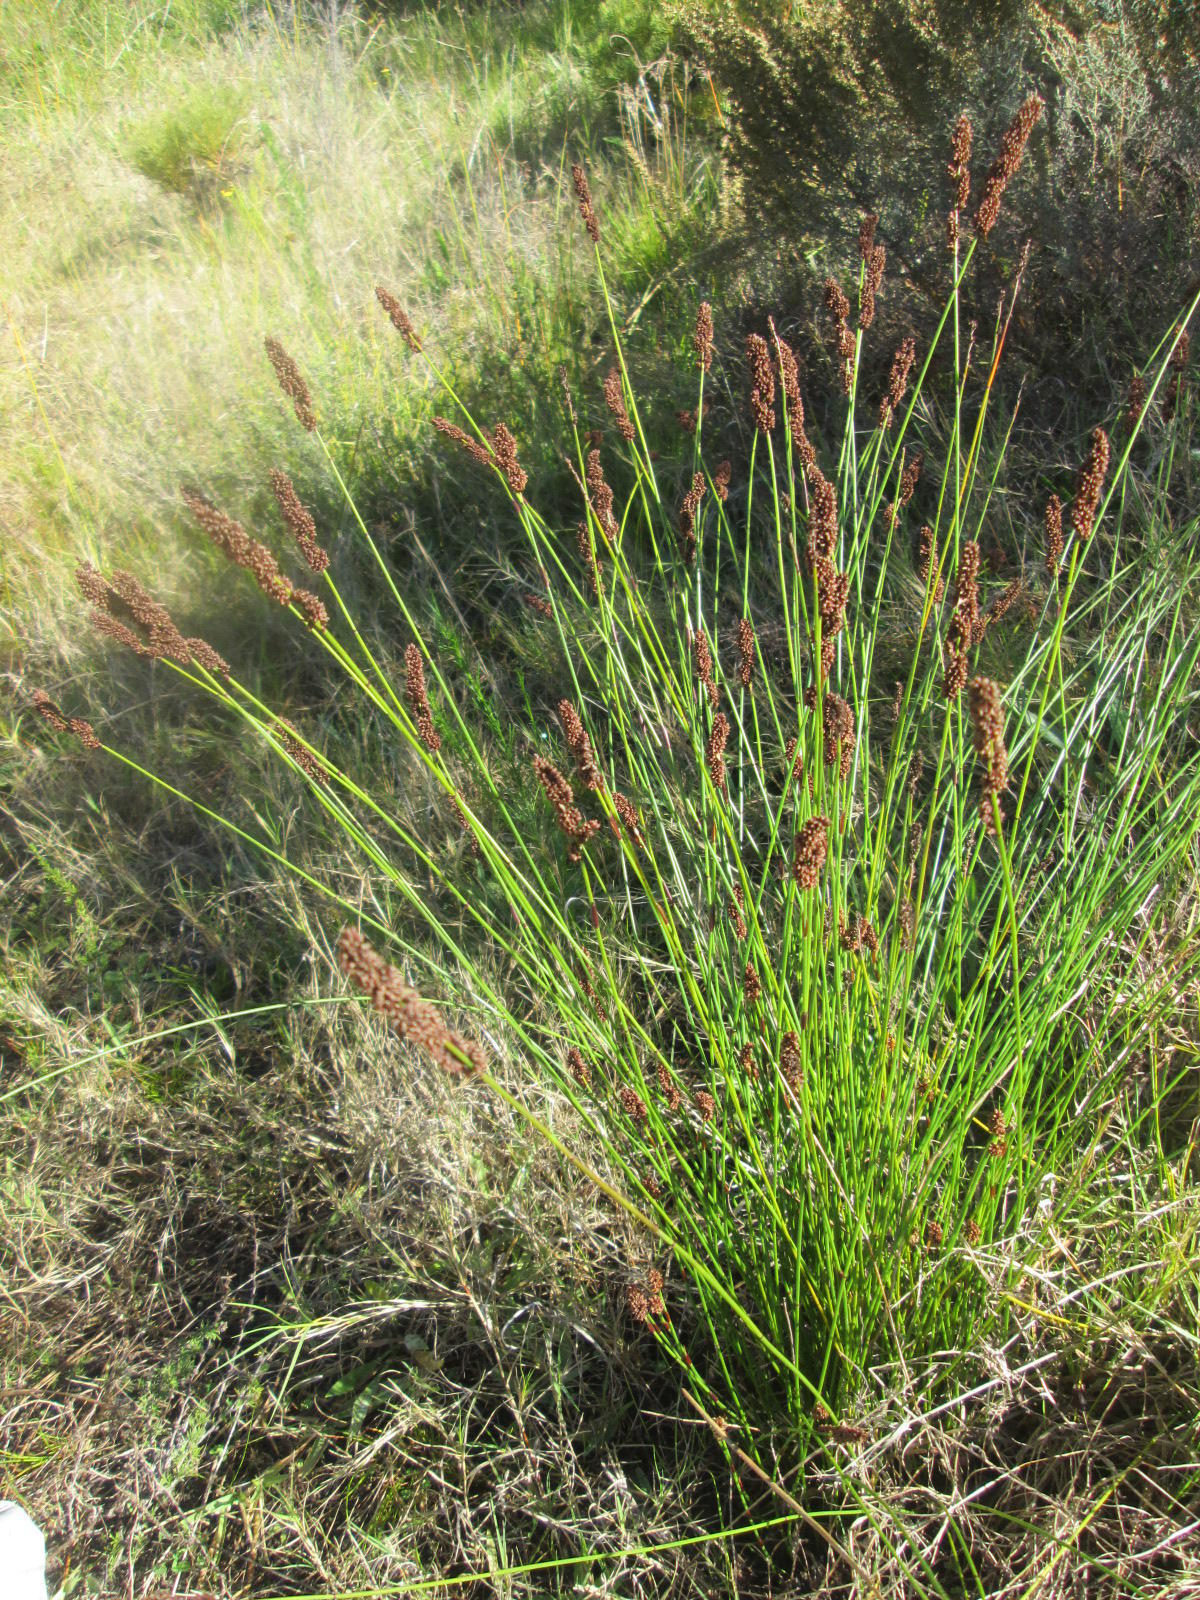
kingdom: Plantae
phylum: Tracheophyta
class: Liliopsida
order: Poales
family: Restionaceae
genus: Elegia
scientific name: Elegia nuda
